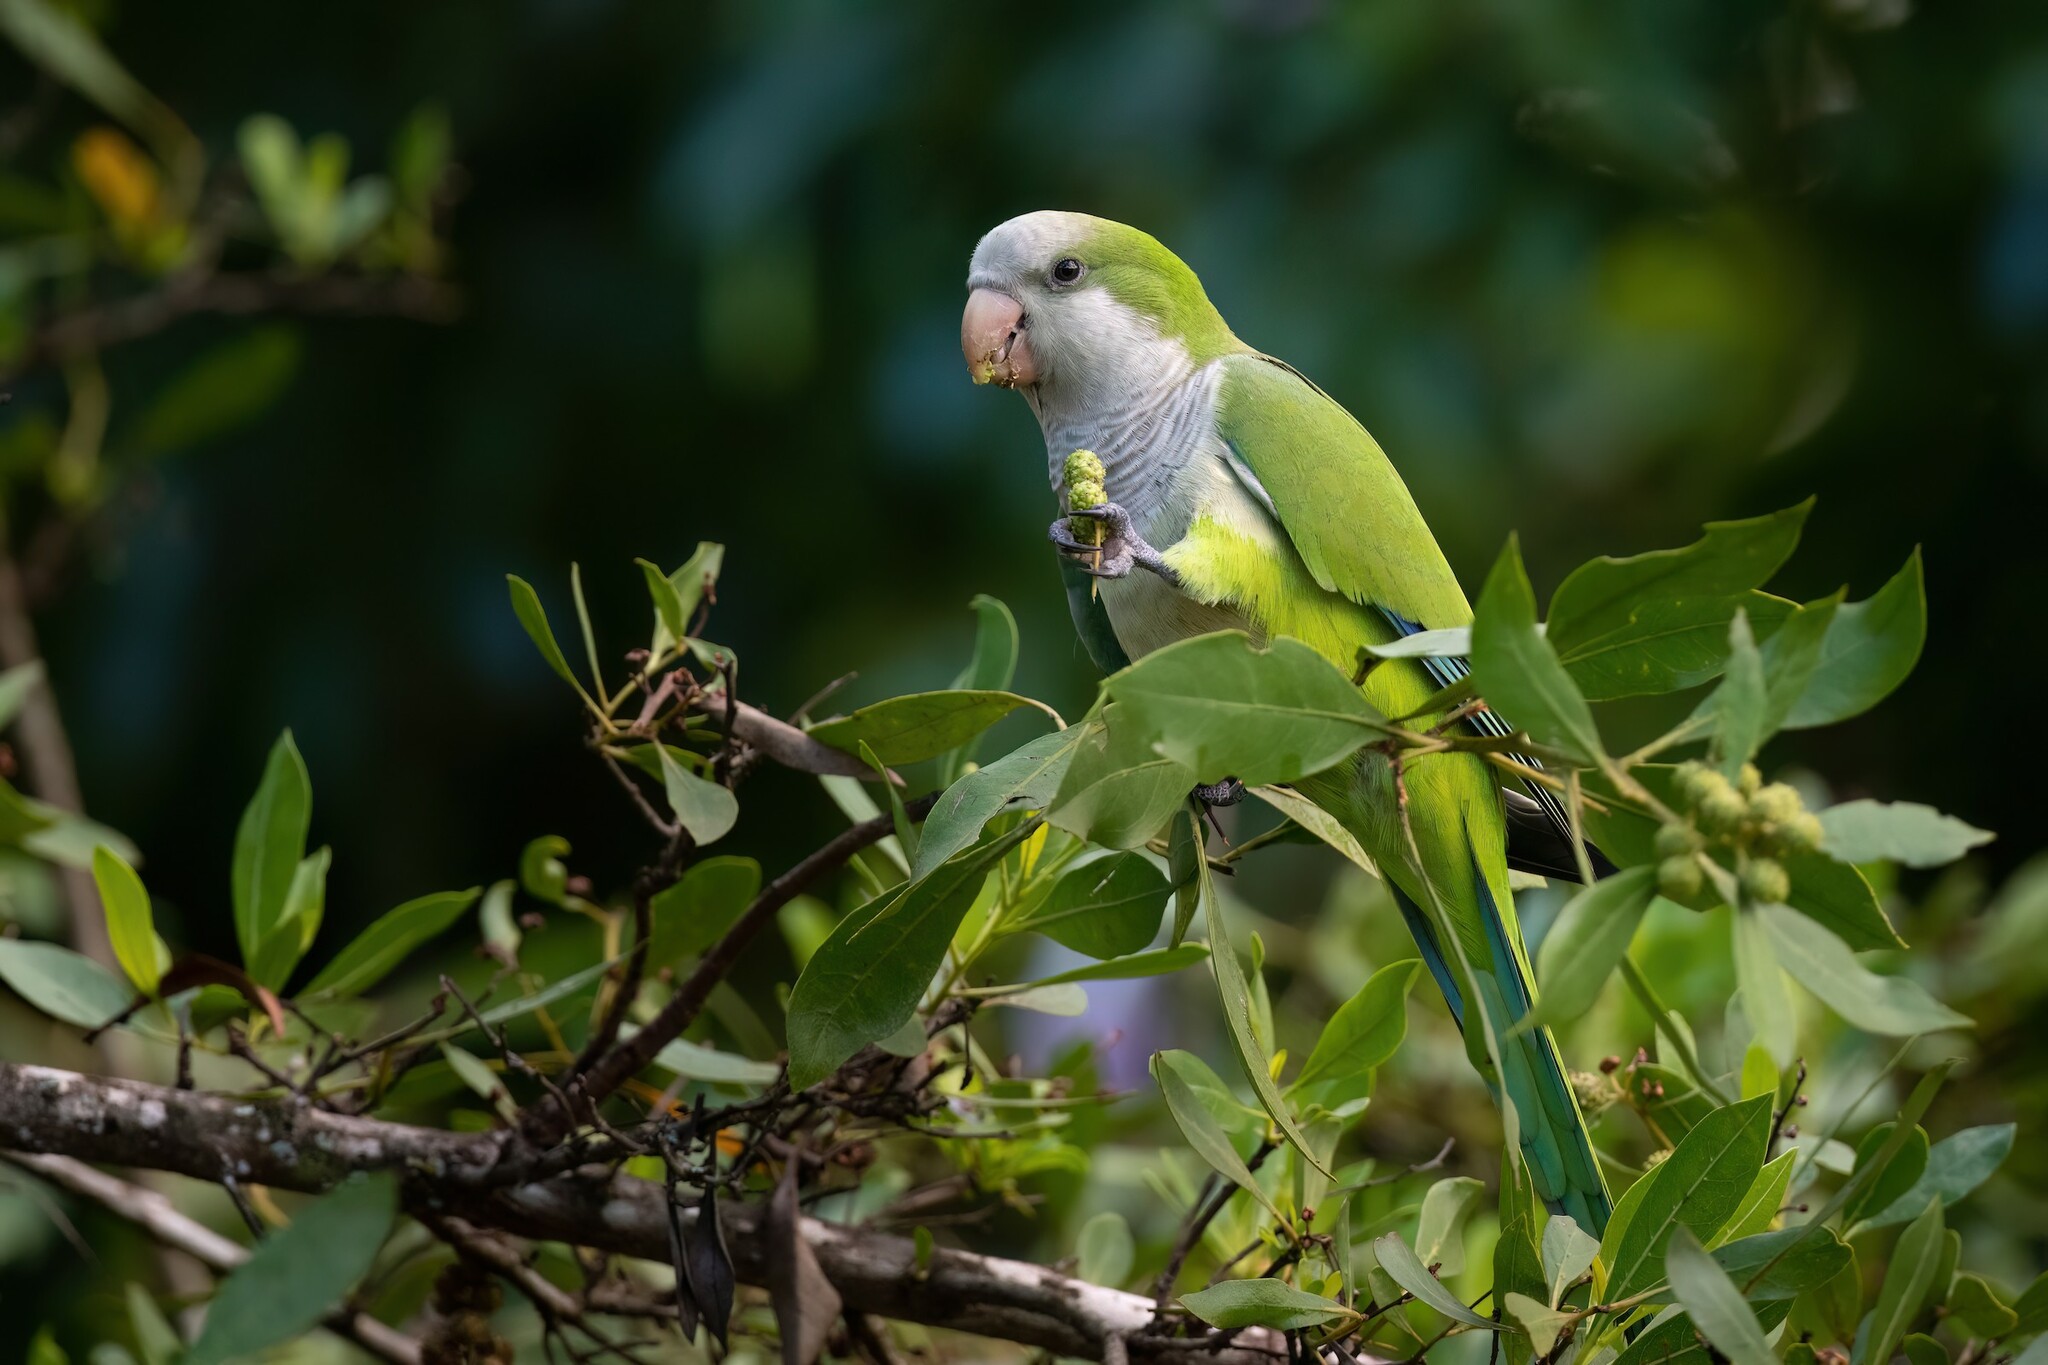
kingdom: Animalia
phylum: Chordata
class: Aves
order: Psittaciformes
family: Psittacidae
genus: Myiopsitta
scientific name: Myiopsitta monachus
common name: Monk parakeet
